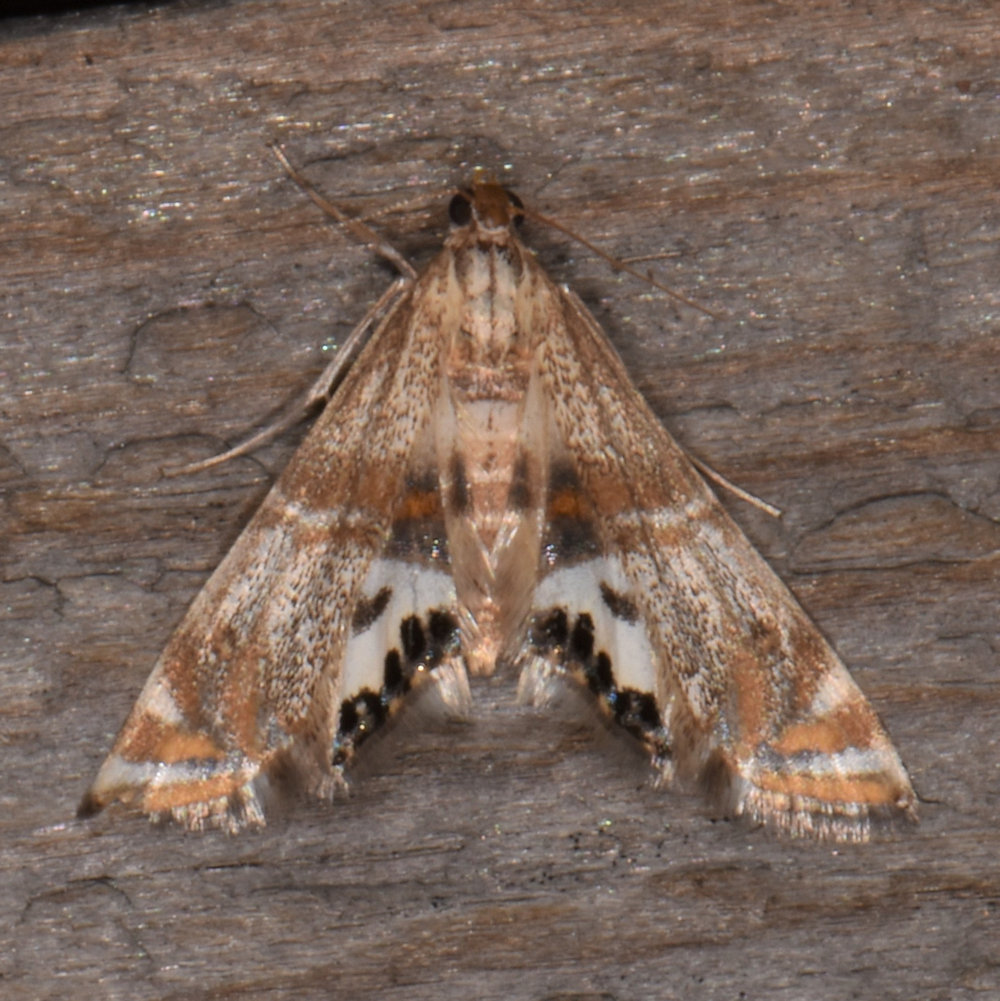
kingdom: Animalia
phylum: Arthropoda
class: Insecta
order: Lepidoptera
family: Crambidae
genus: Petrophila
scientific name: Petrophila bifascialis
